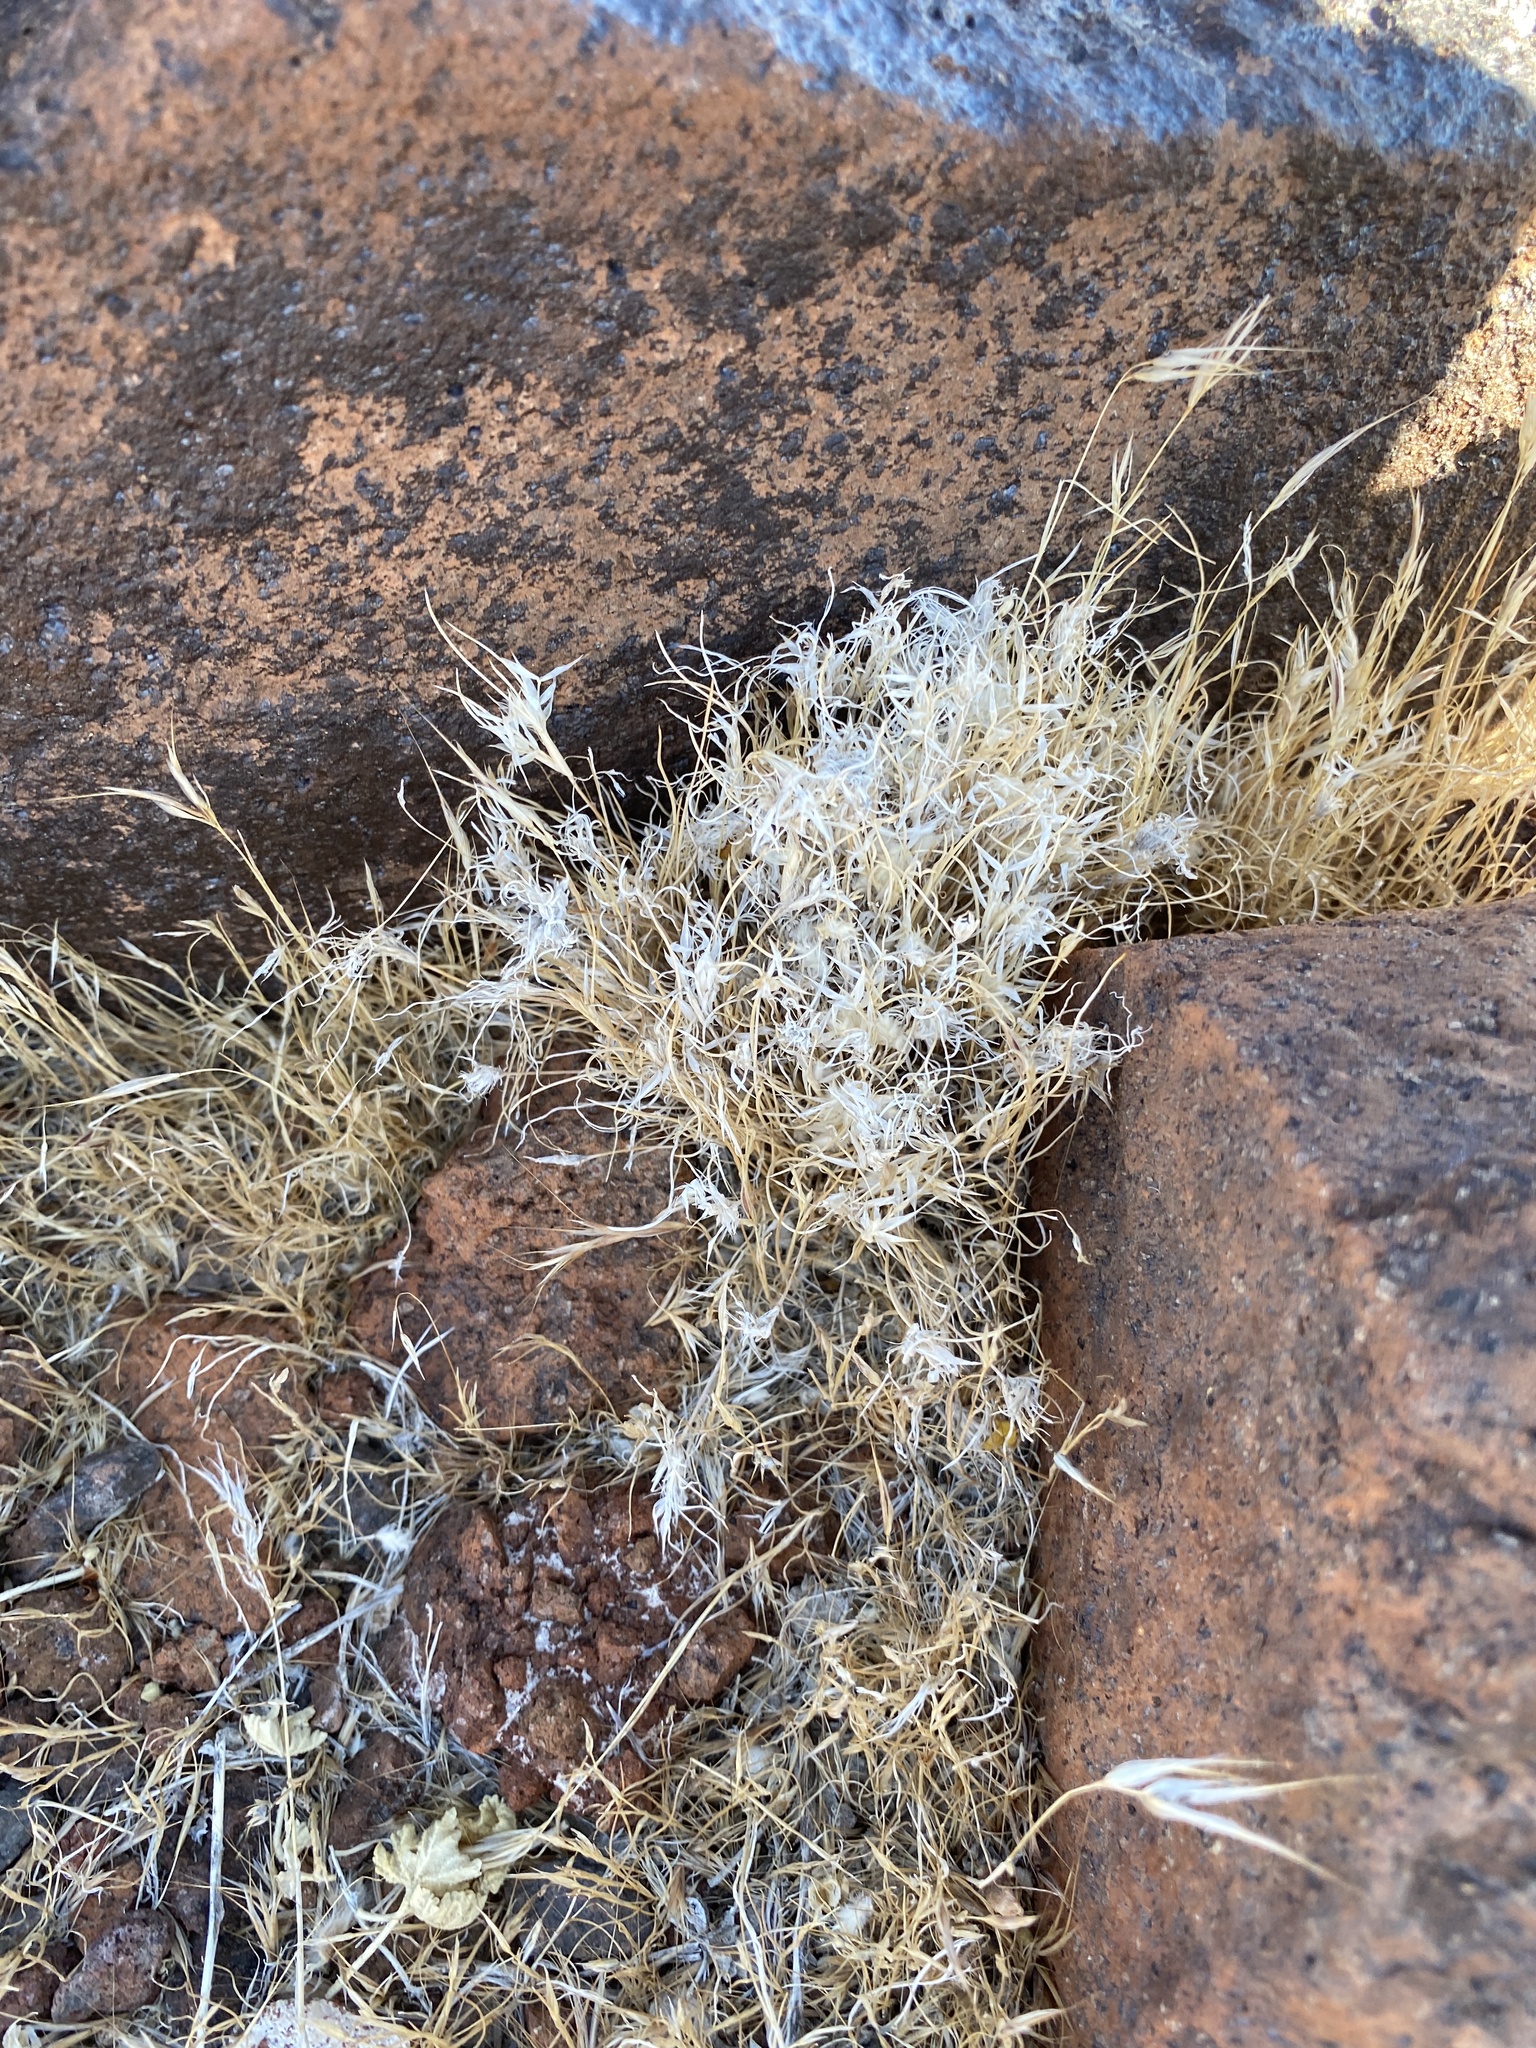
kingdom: Plantae
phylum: Tracheophyta
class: Liliopsida
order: Poales
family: Poaceae
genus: Dasyochloa
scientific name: Dasyochloa pulchella
